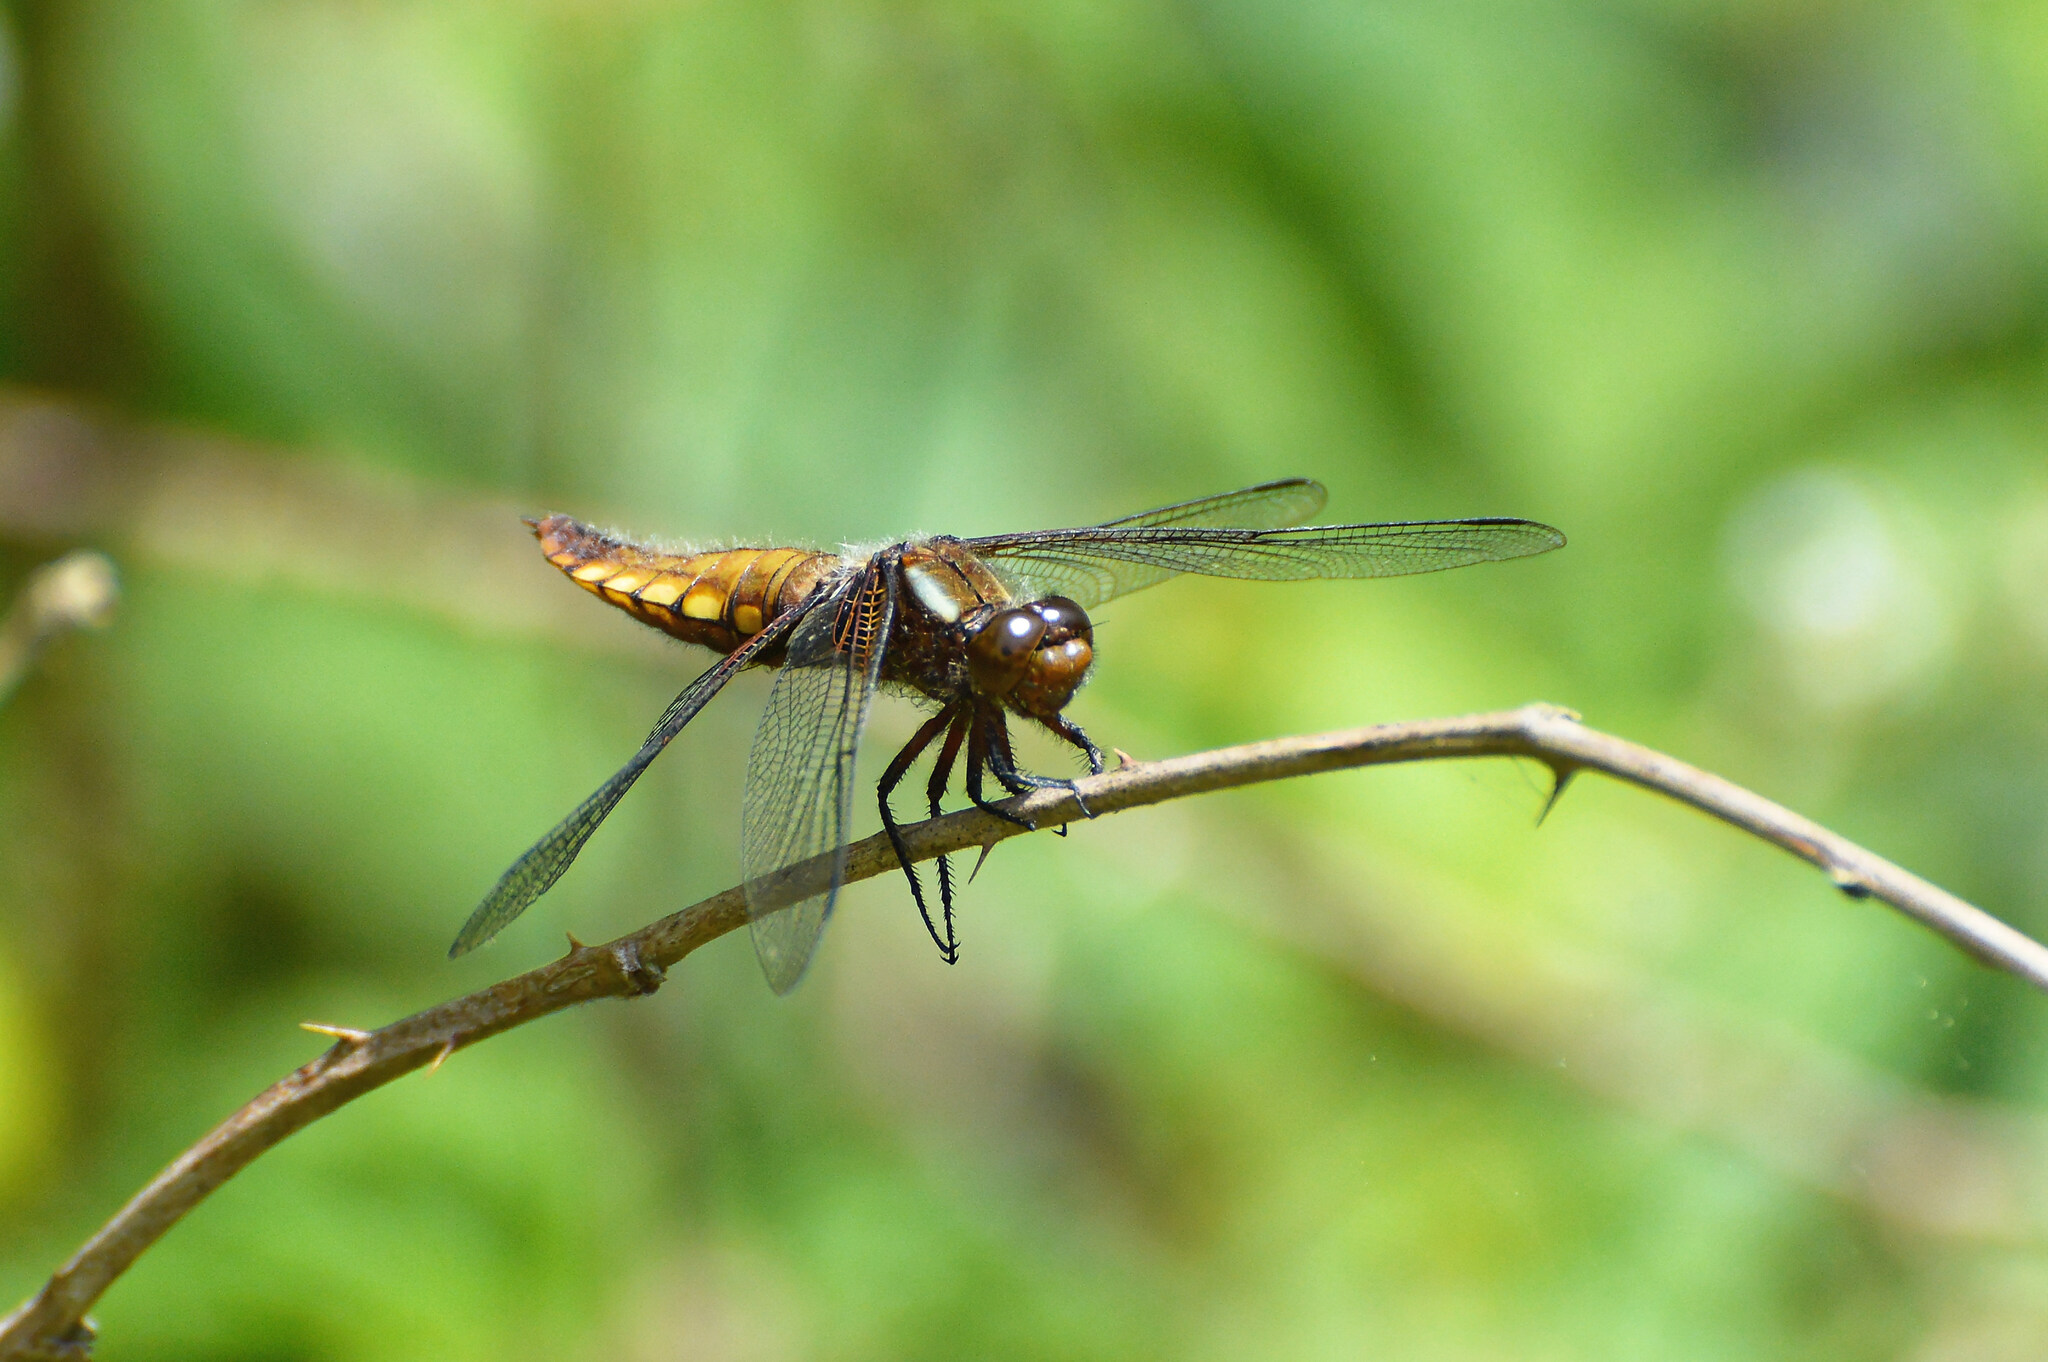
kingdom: Animalia
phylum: Arthropoda
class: Insecta
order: Odonata
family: Libellulidae
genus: Libellula
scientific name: Libellula depressa
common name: Broad-bodied chaser
